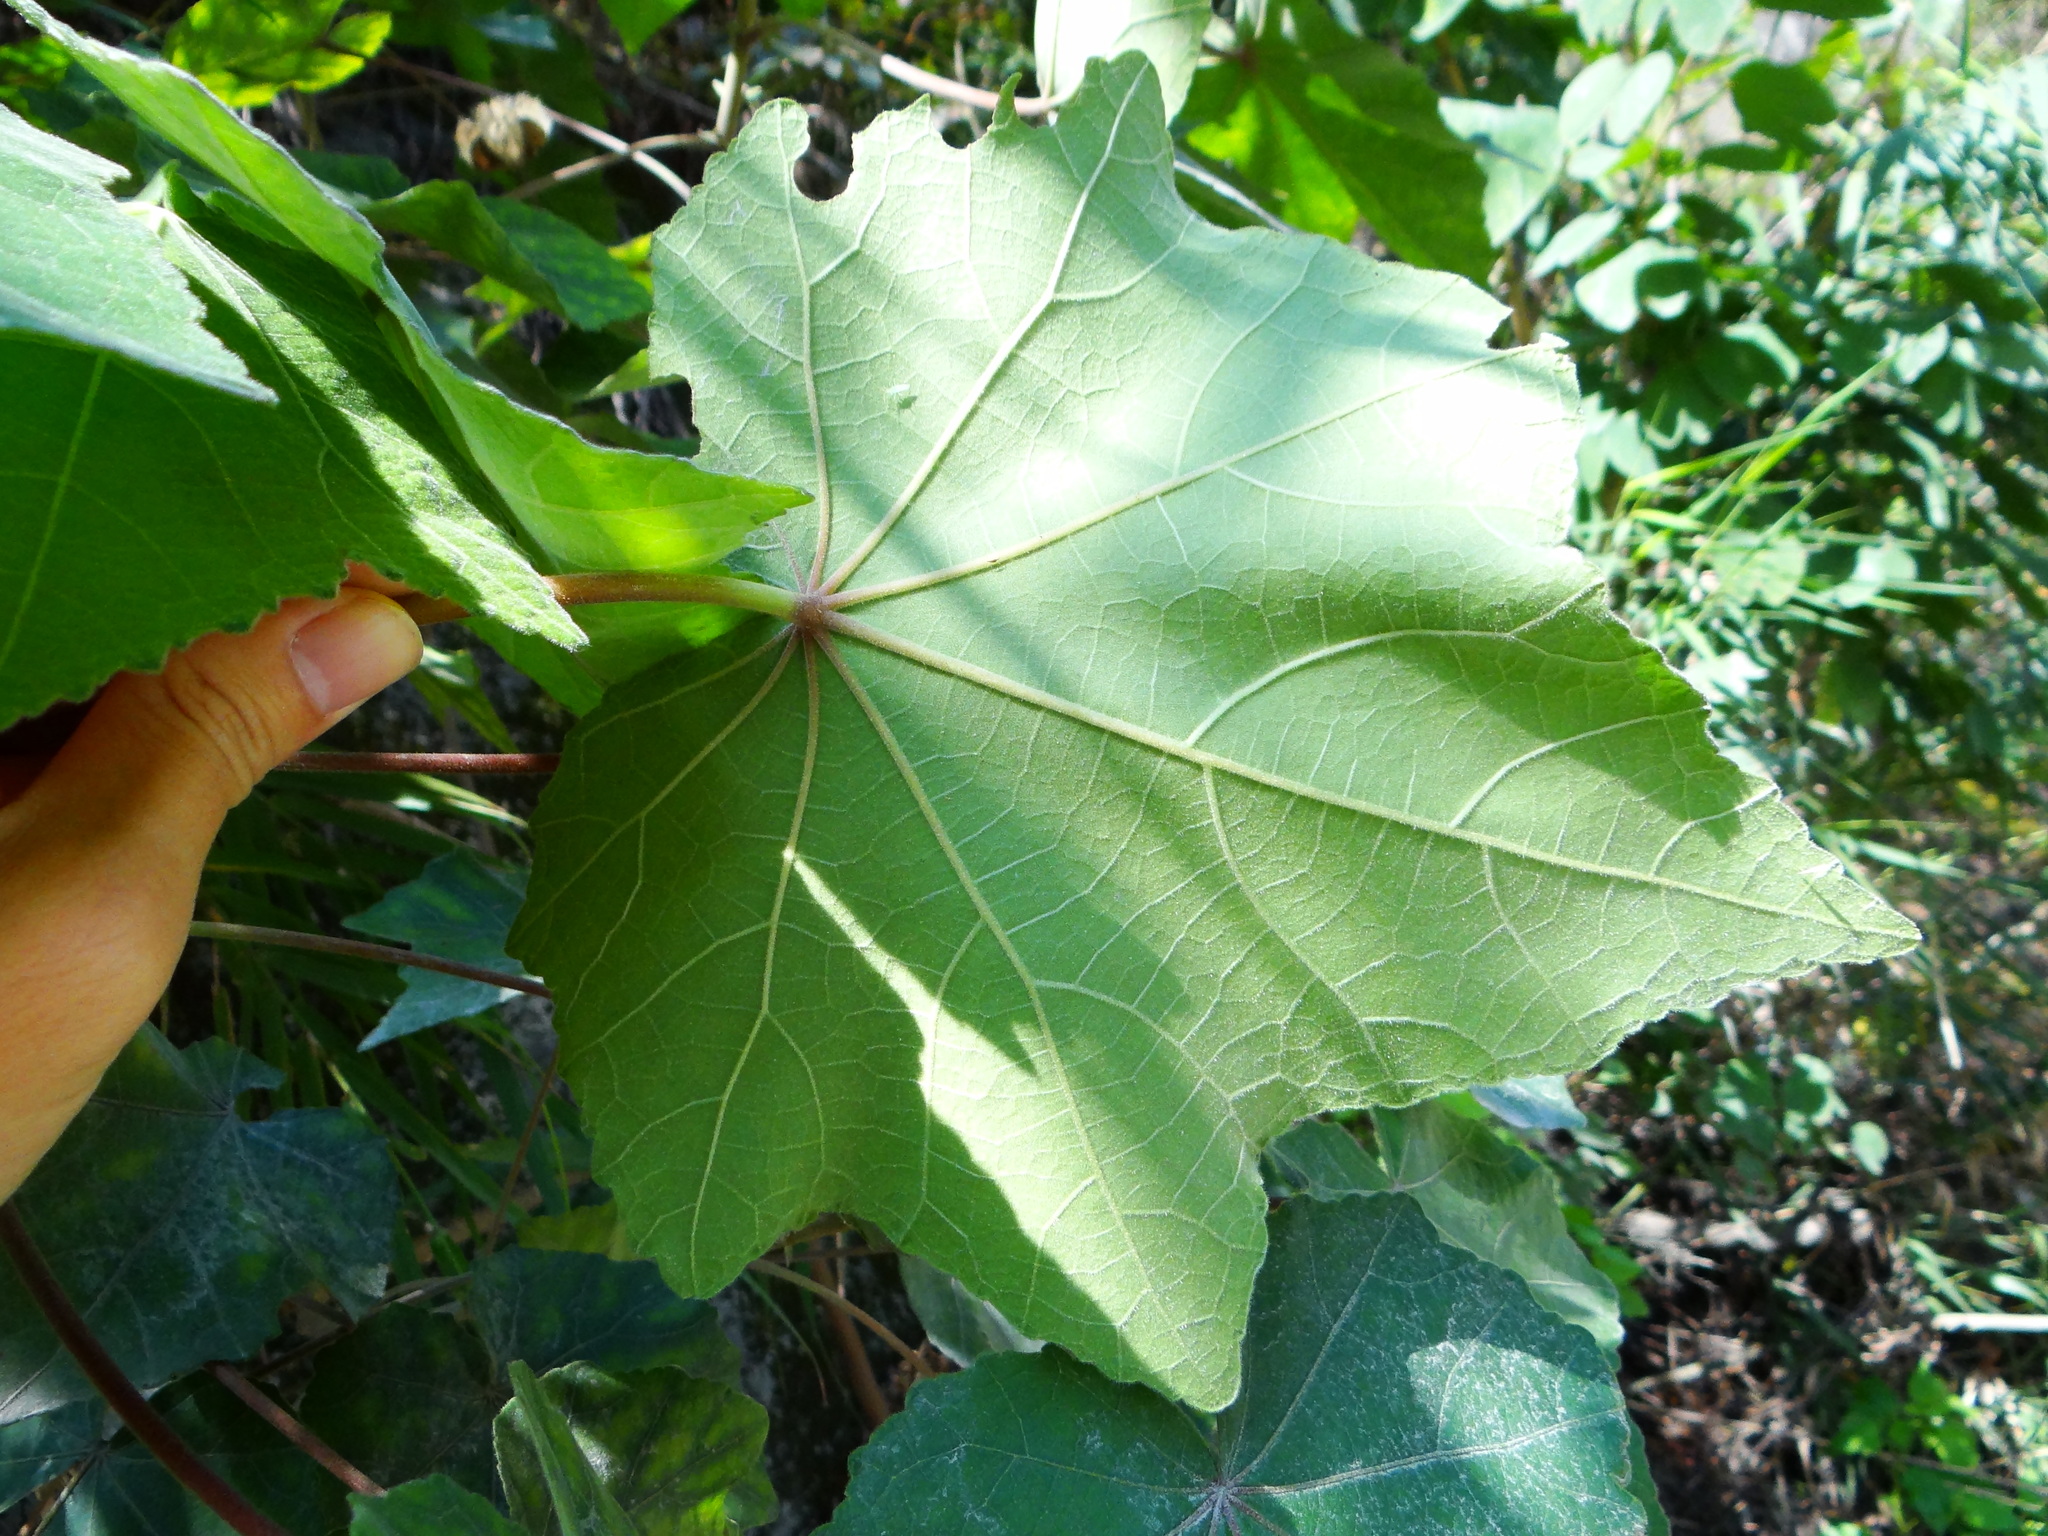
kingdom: Plantae
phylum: Tracheophyta
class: Magnoliopsida
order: Malvales
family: Malvaceae
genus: Hibiscus
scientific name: Hibiscus taiwanensis
